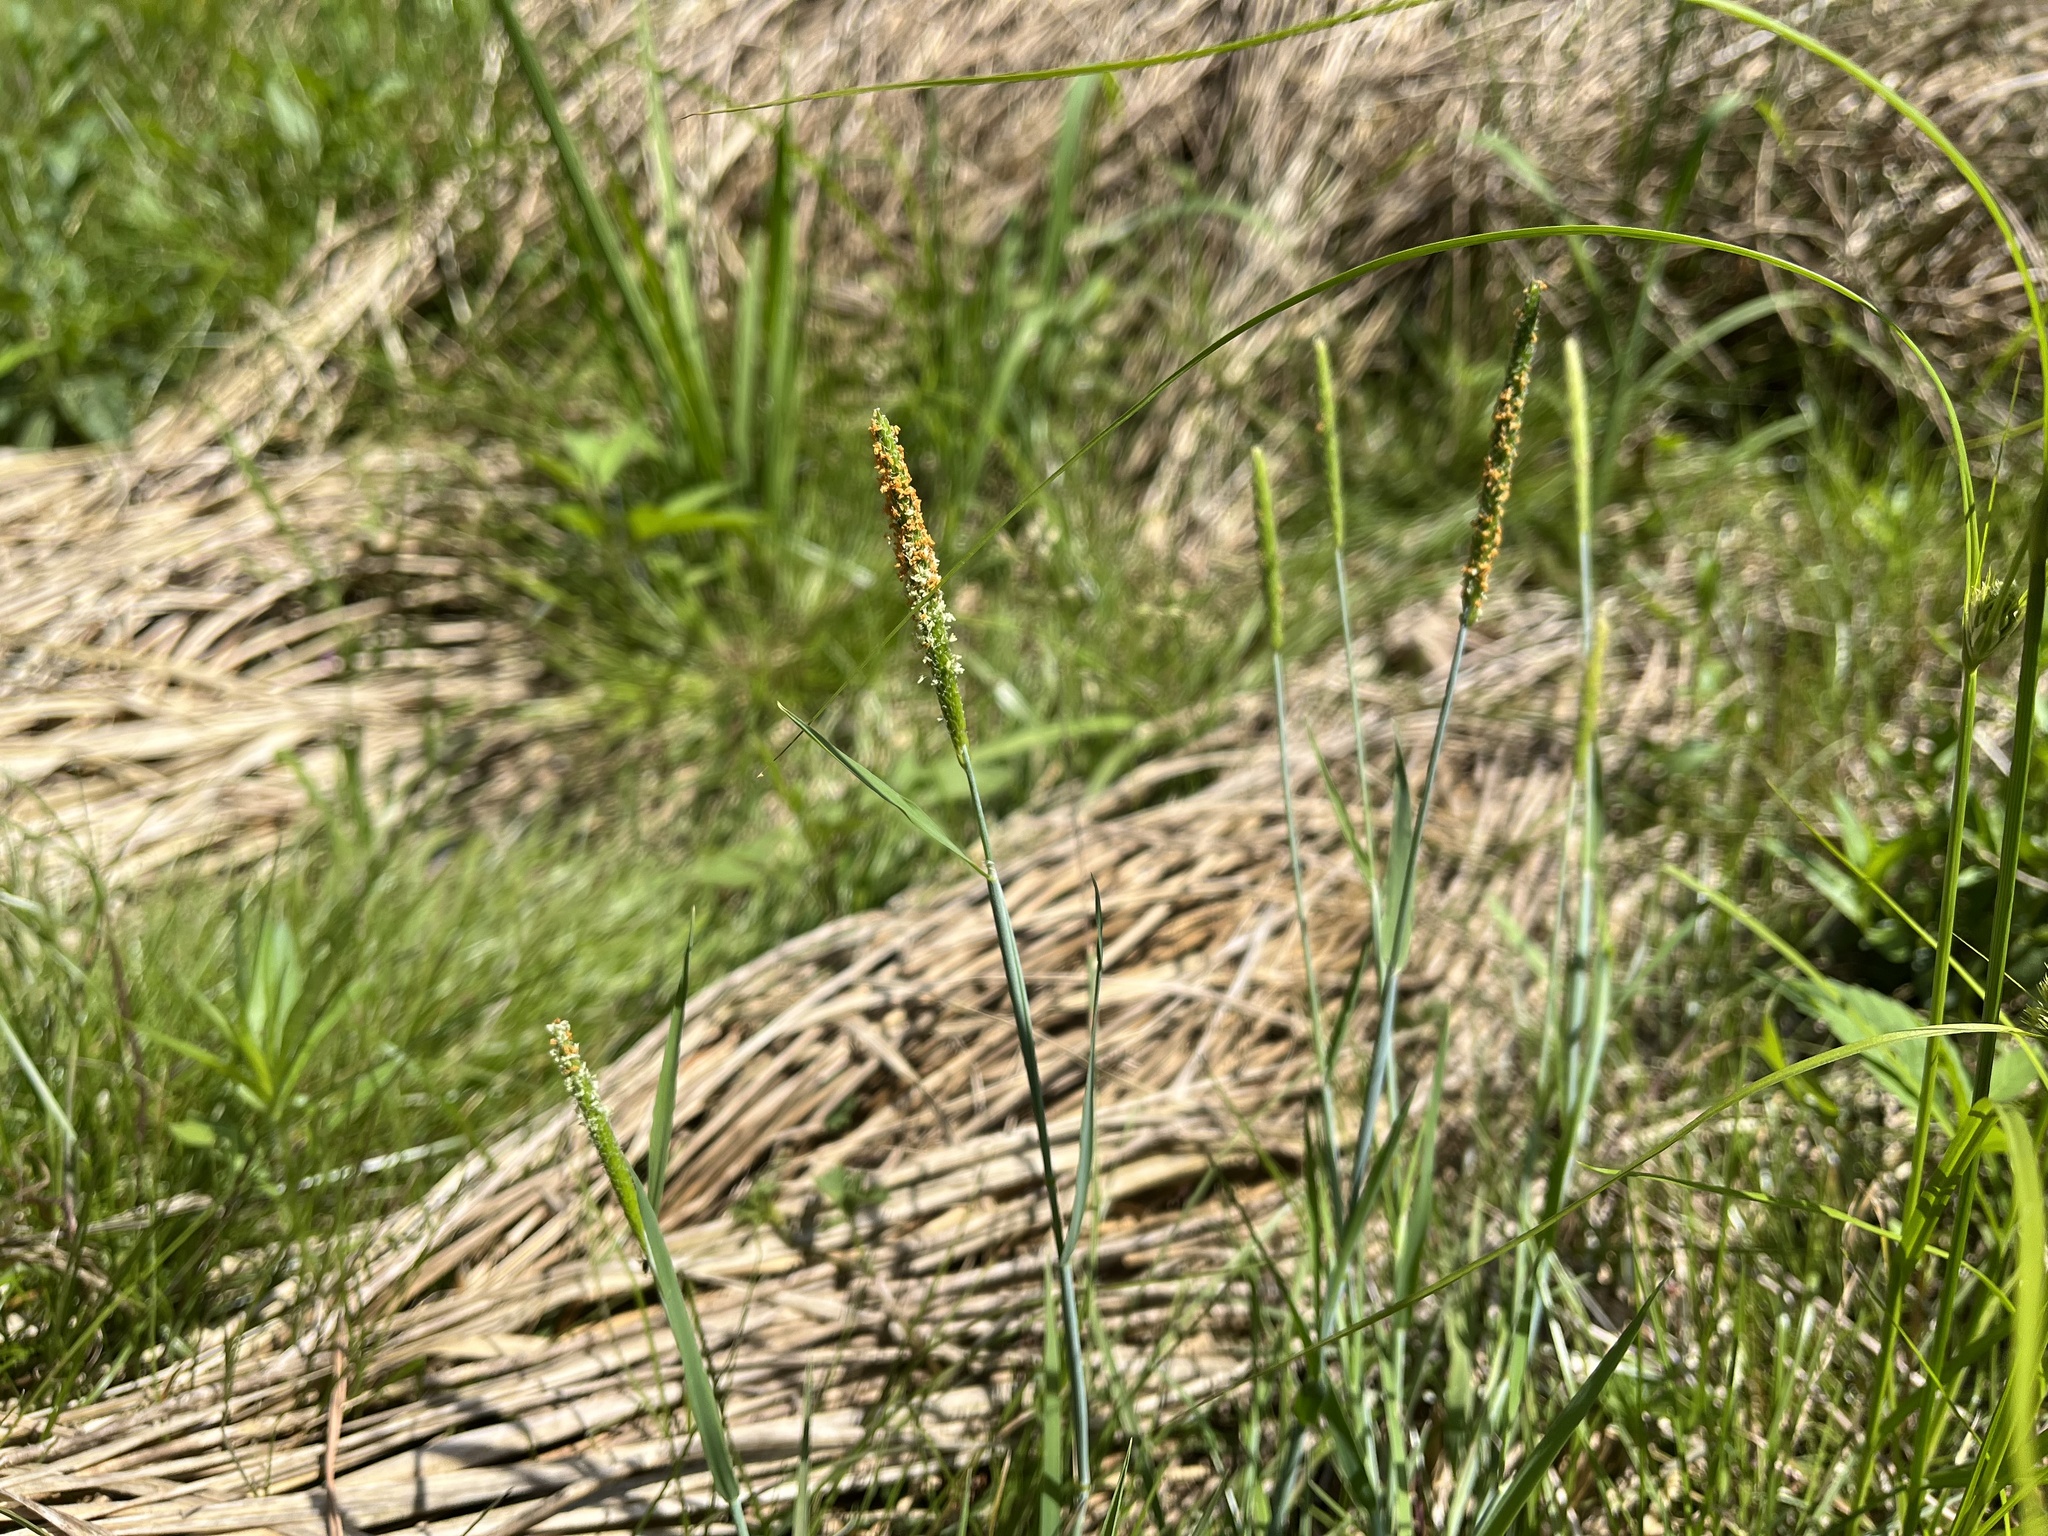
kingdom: Plantae
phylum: Tracheophyta
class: Liliopsida
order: Poales
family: Poaceae
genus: Alopecurus
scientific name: Alopecurus aequalis
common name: Orange foxtail
